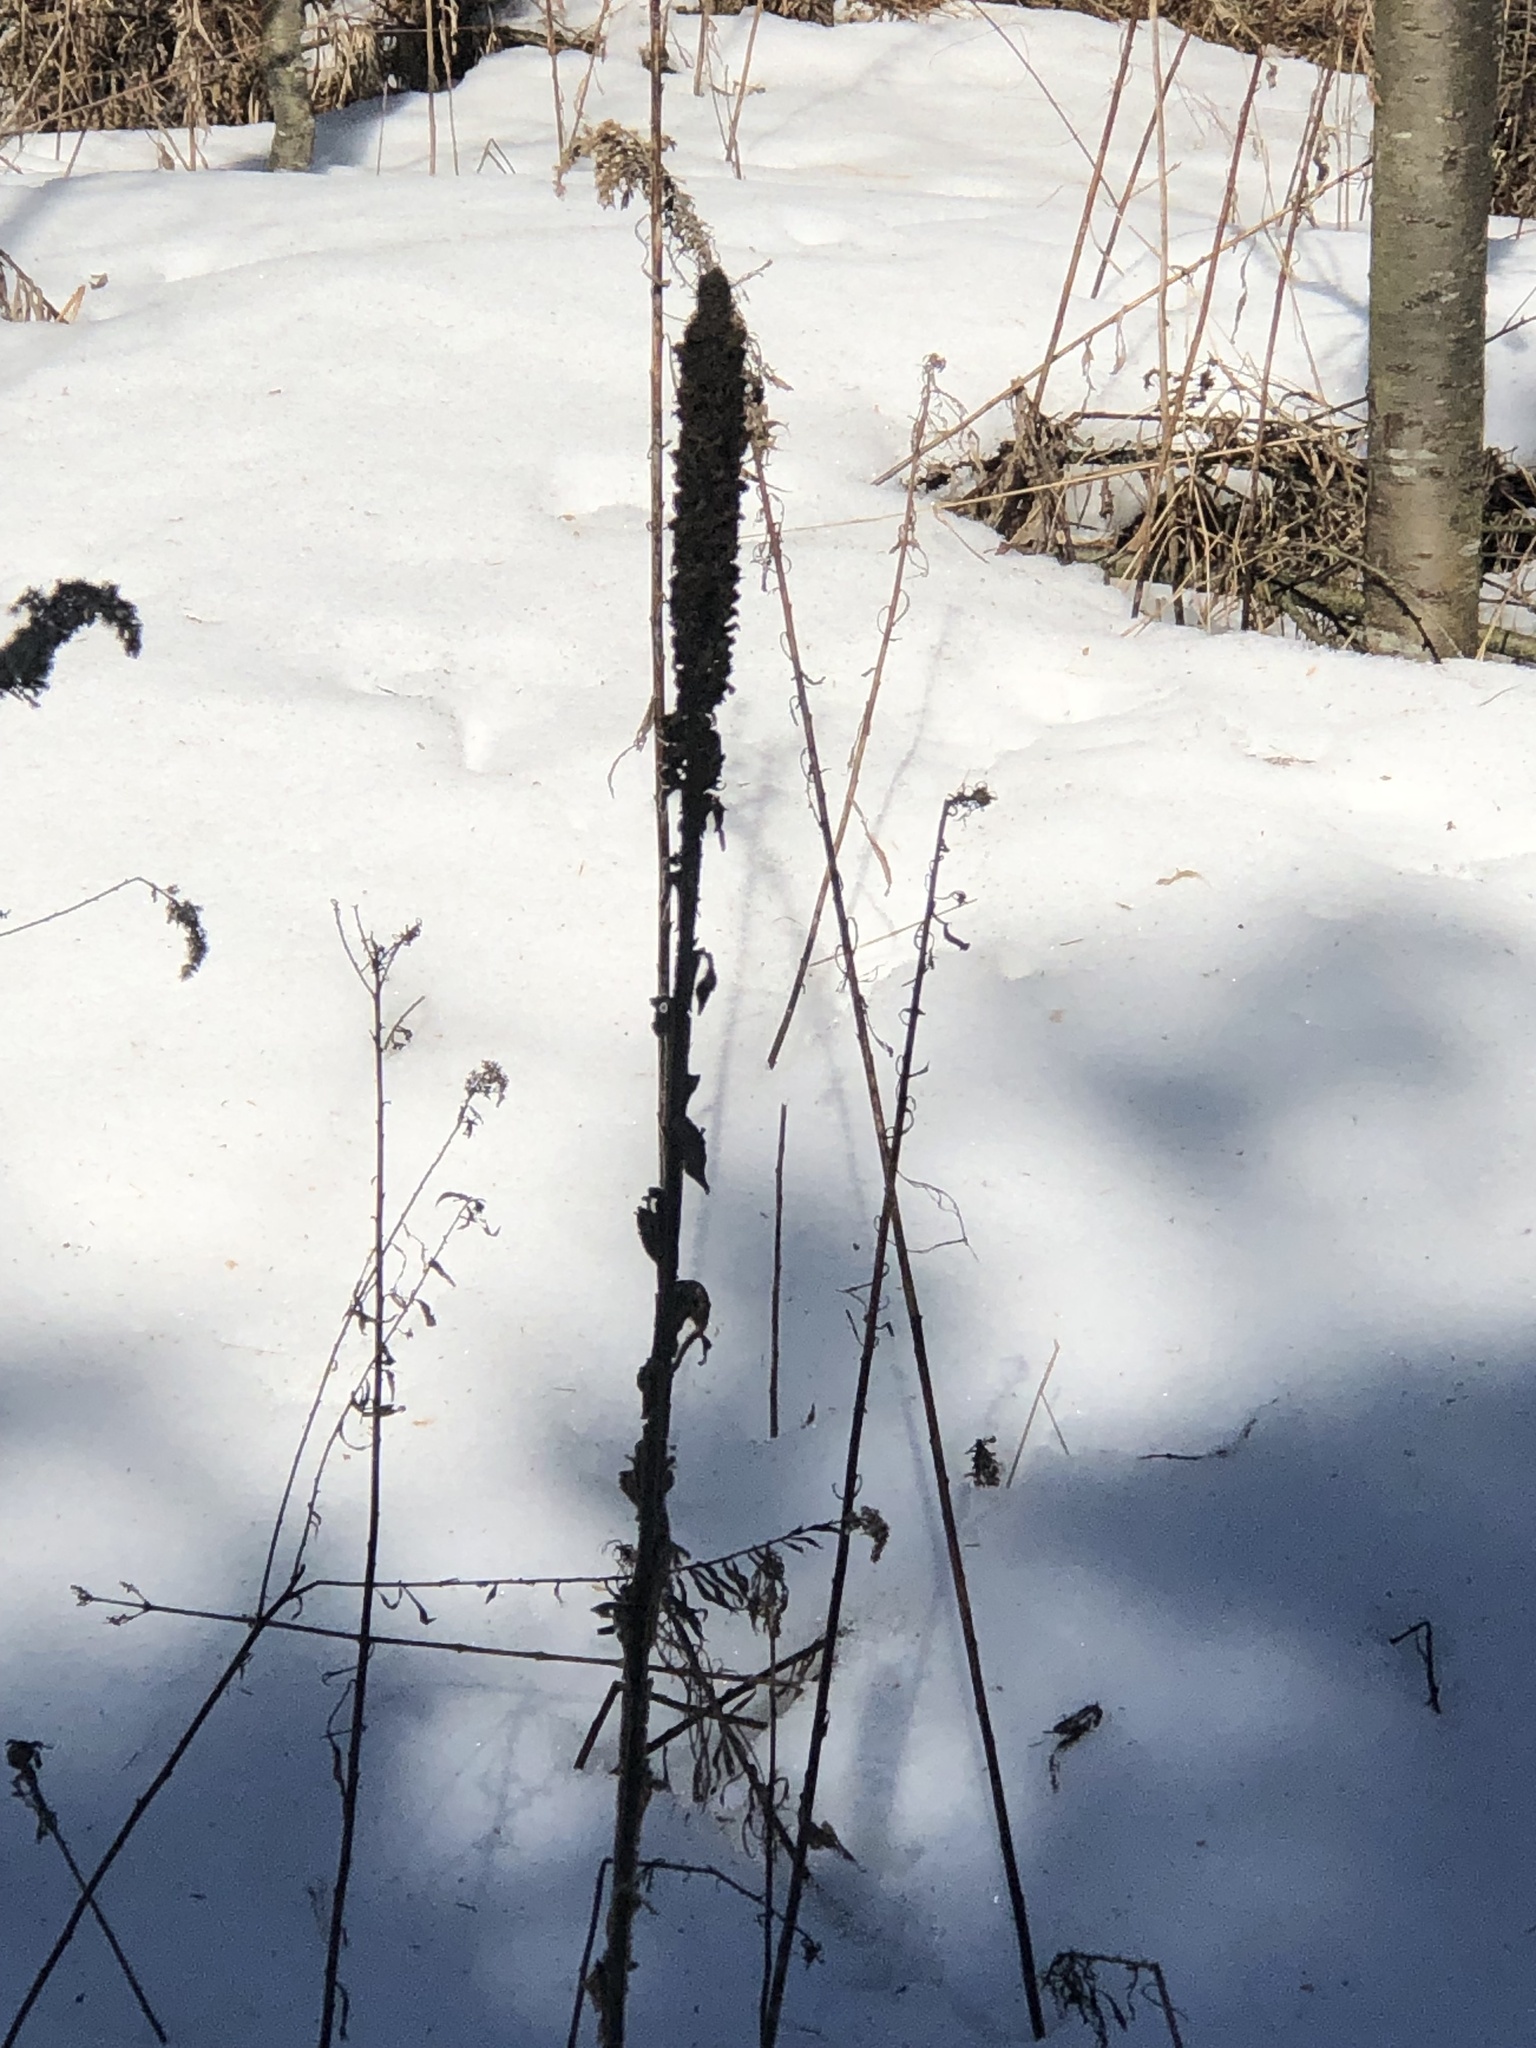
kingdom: Plantae
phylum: Tracheophyta
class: Magnoliopsida
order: Lamiales
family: Scrophulariaceae
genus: Verbascum
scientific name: Verbascum thapsus
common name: Common mullein
